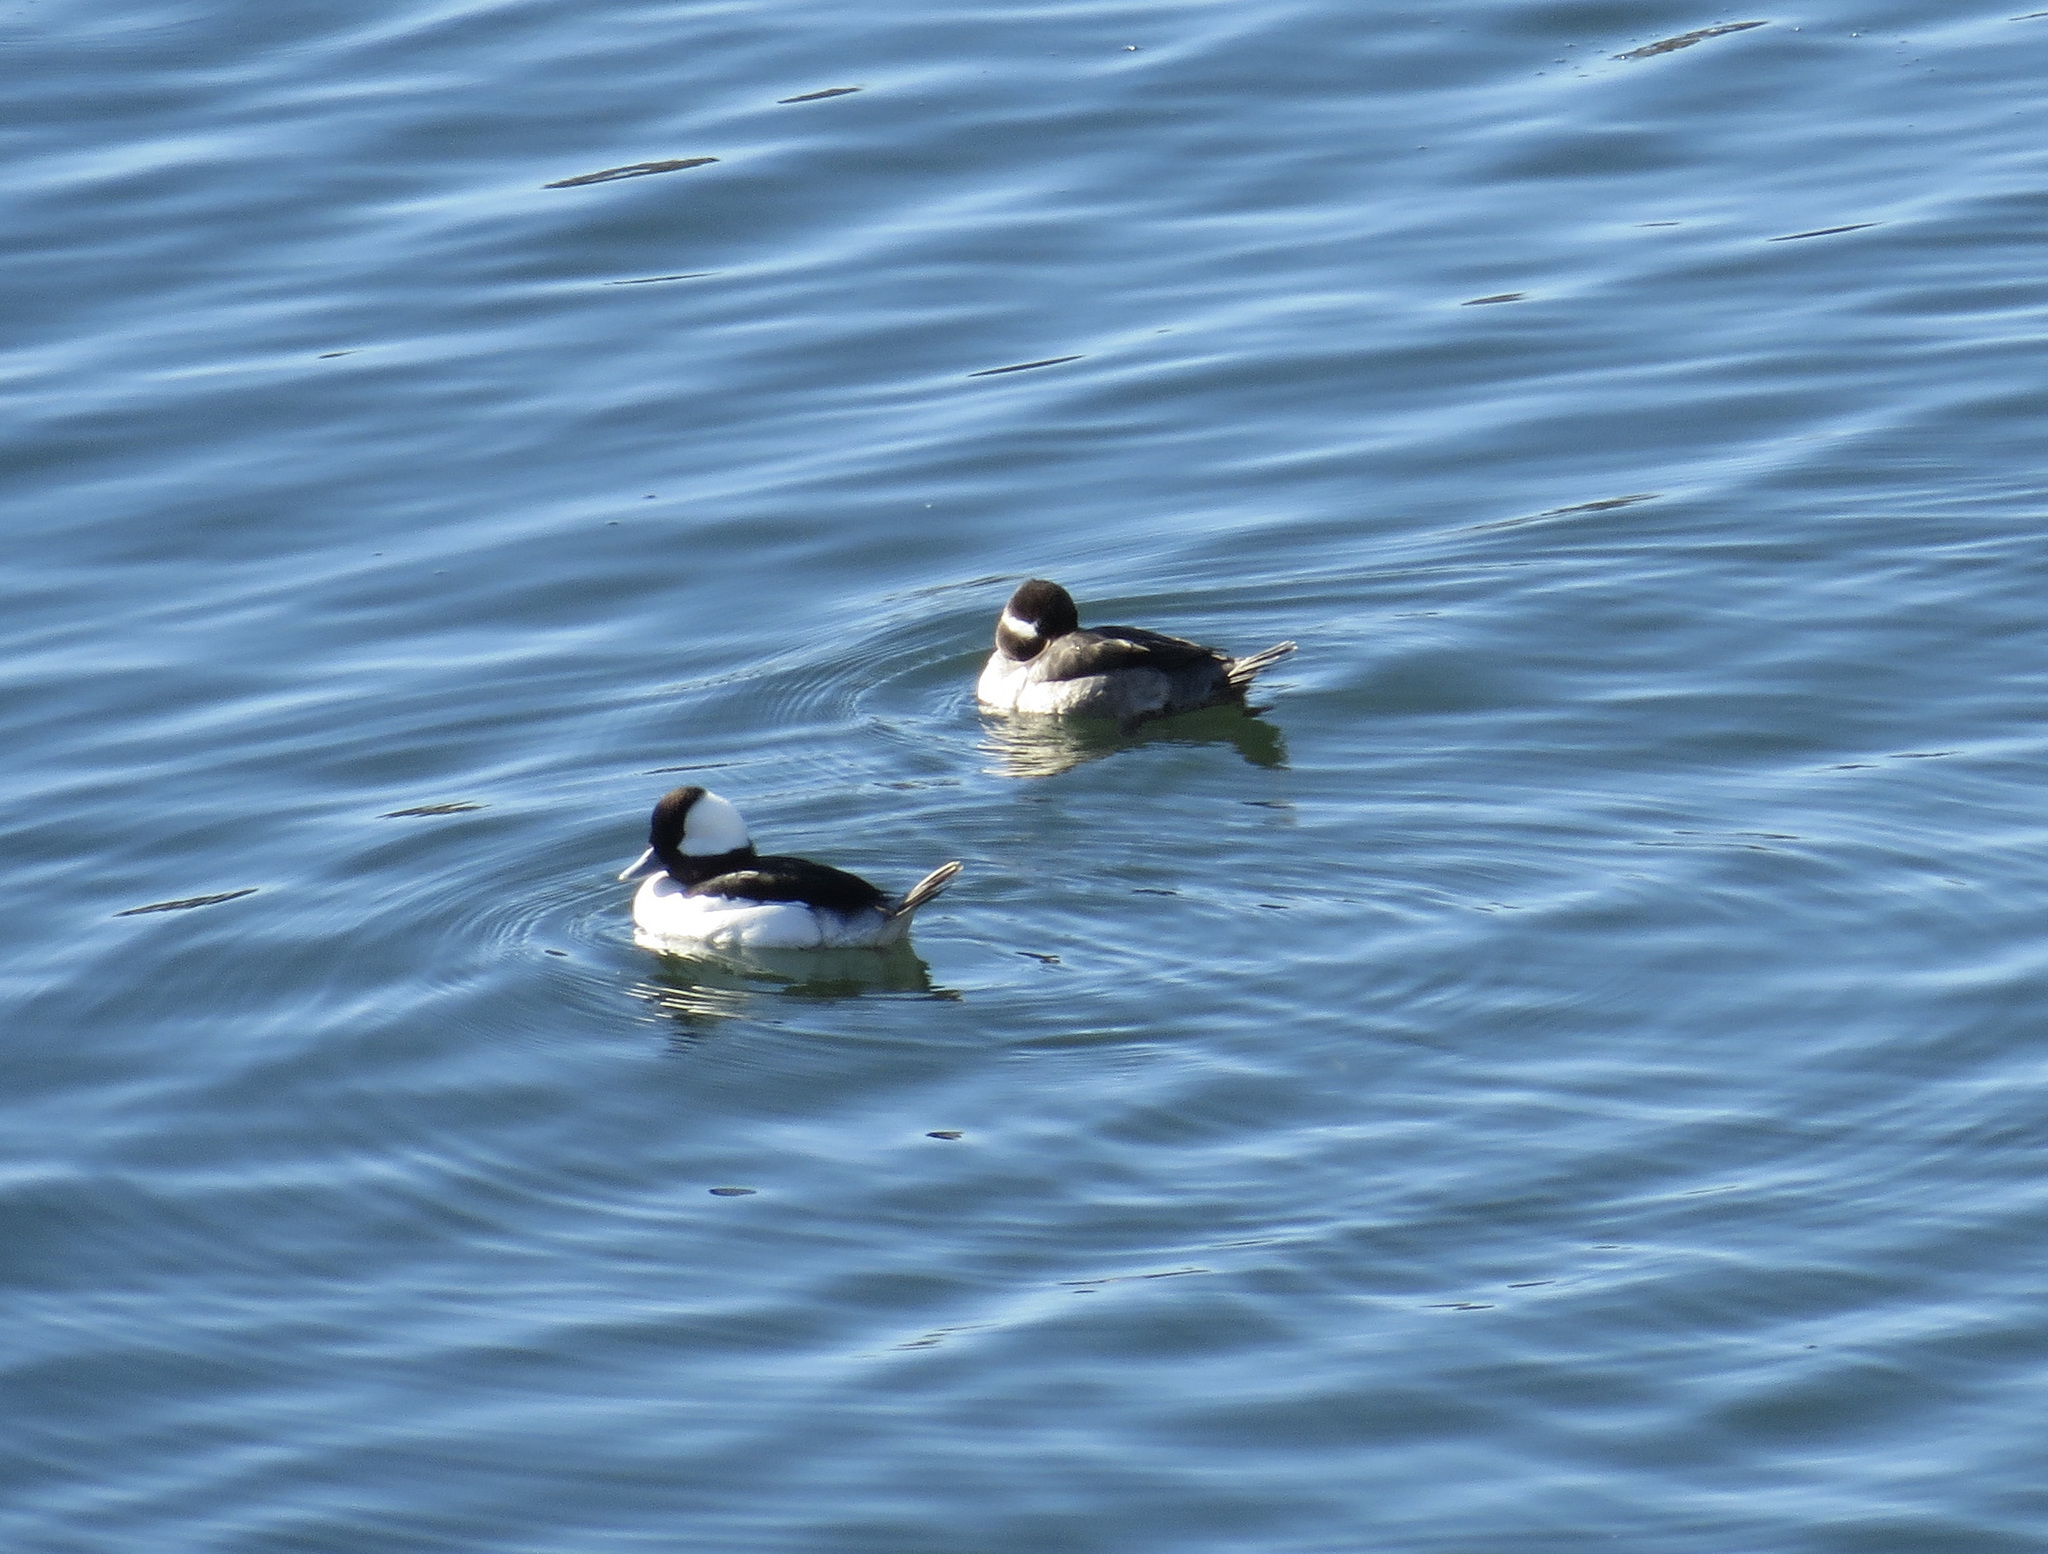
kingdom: Animalia
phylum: Chordata
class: Aves
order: Anseriformes
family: Anatidae
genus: Bucephala
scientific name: Bucephala albeola
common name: Bufflehead
